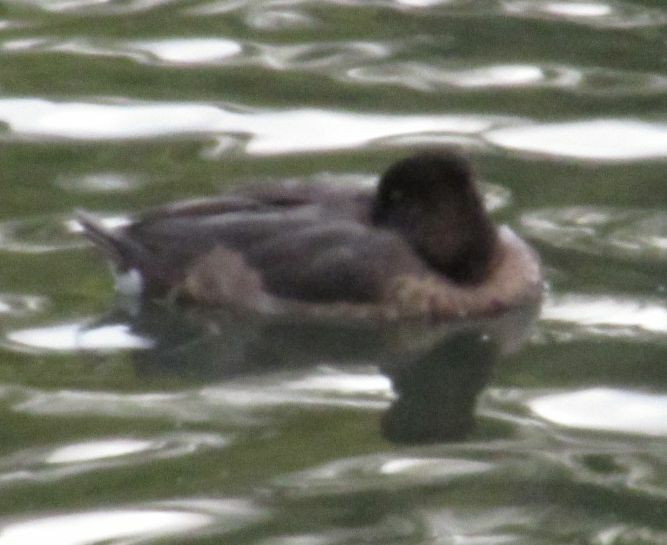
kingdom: Animalia
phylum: Chordata
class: Aves
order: Anseriformes
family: Anatidae
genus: Aythya
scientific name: Aythya fuligula
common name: Tufted duck
